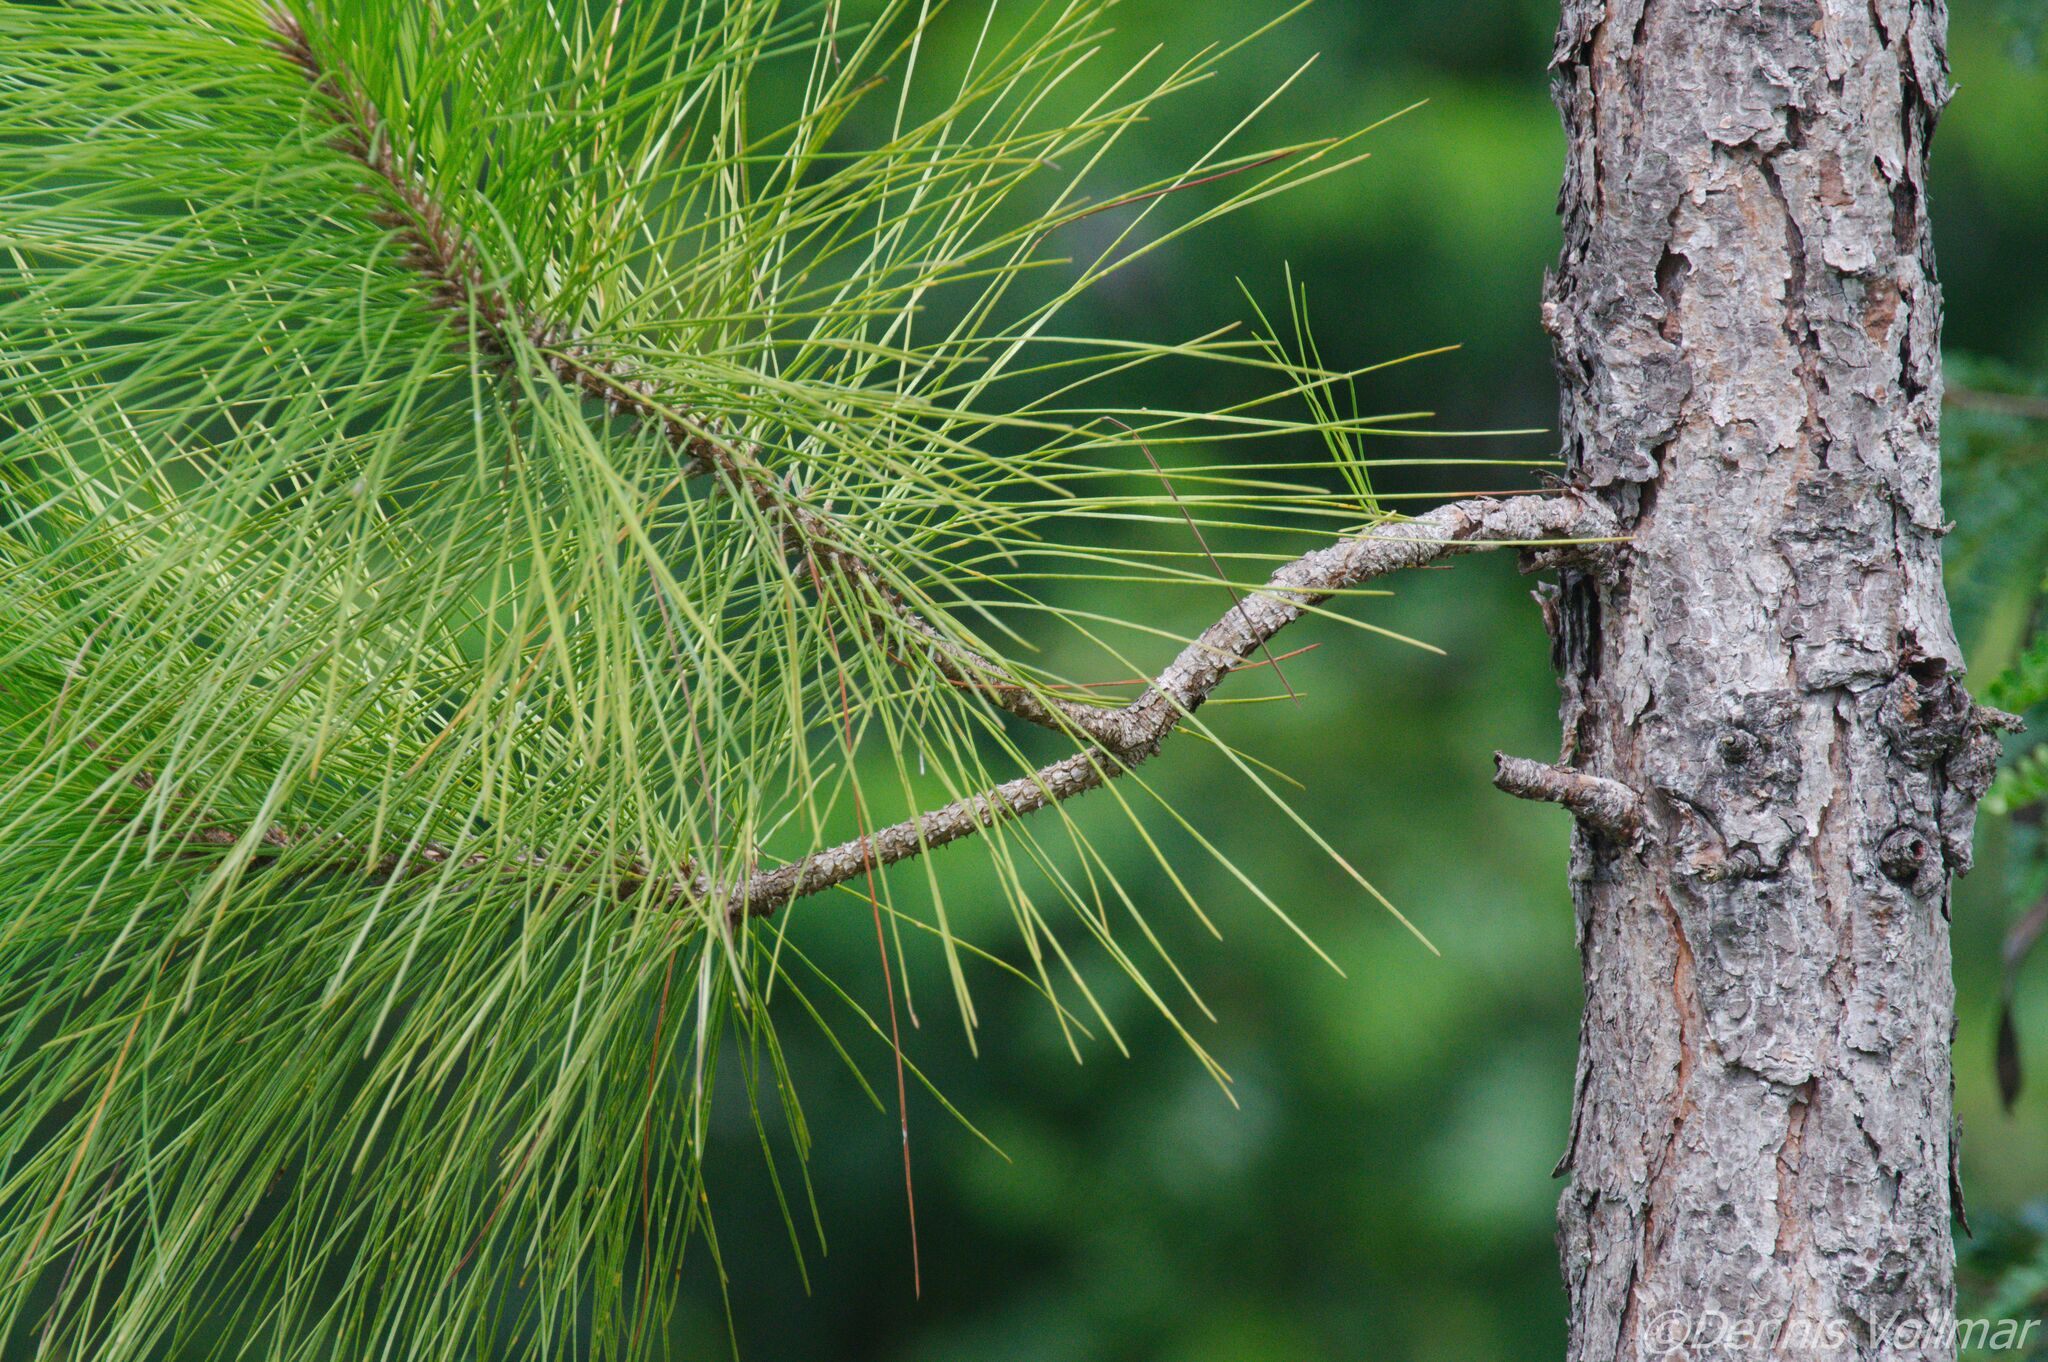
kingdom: Plantae
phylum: Tracheophyta
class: Pinopsida
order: Pinales
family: Pinaceae
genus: Pinus
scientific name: Pinus elliottii
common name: Slash pine
